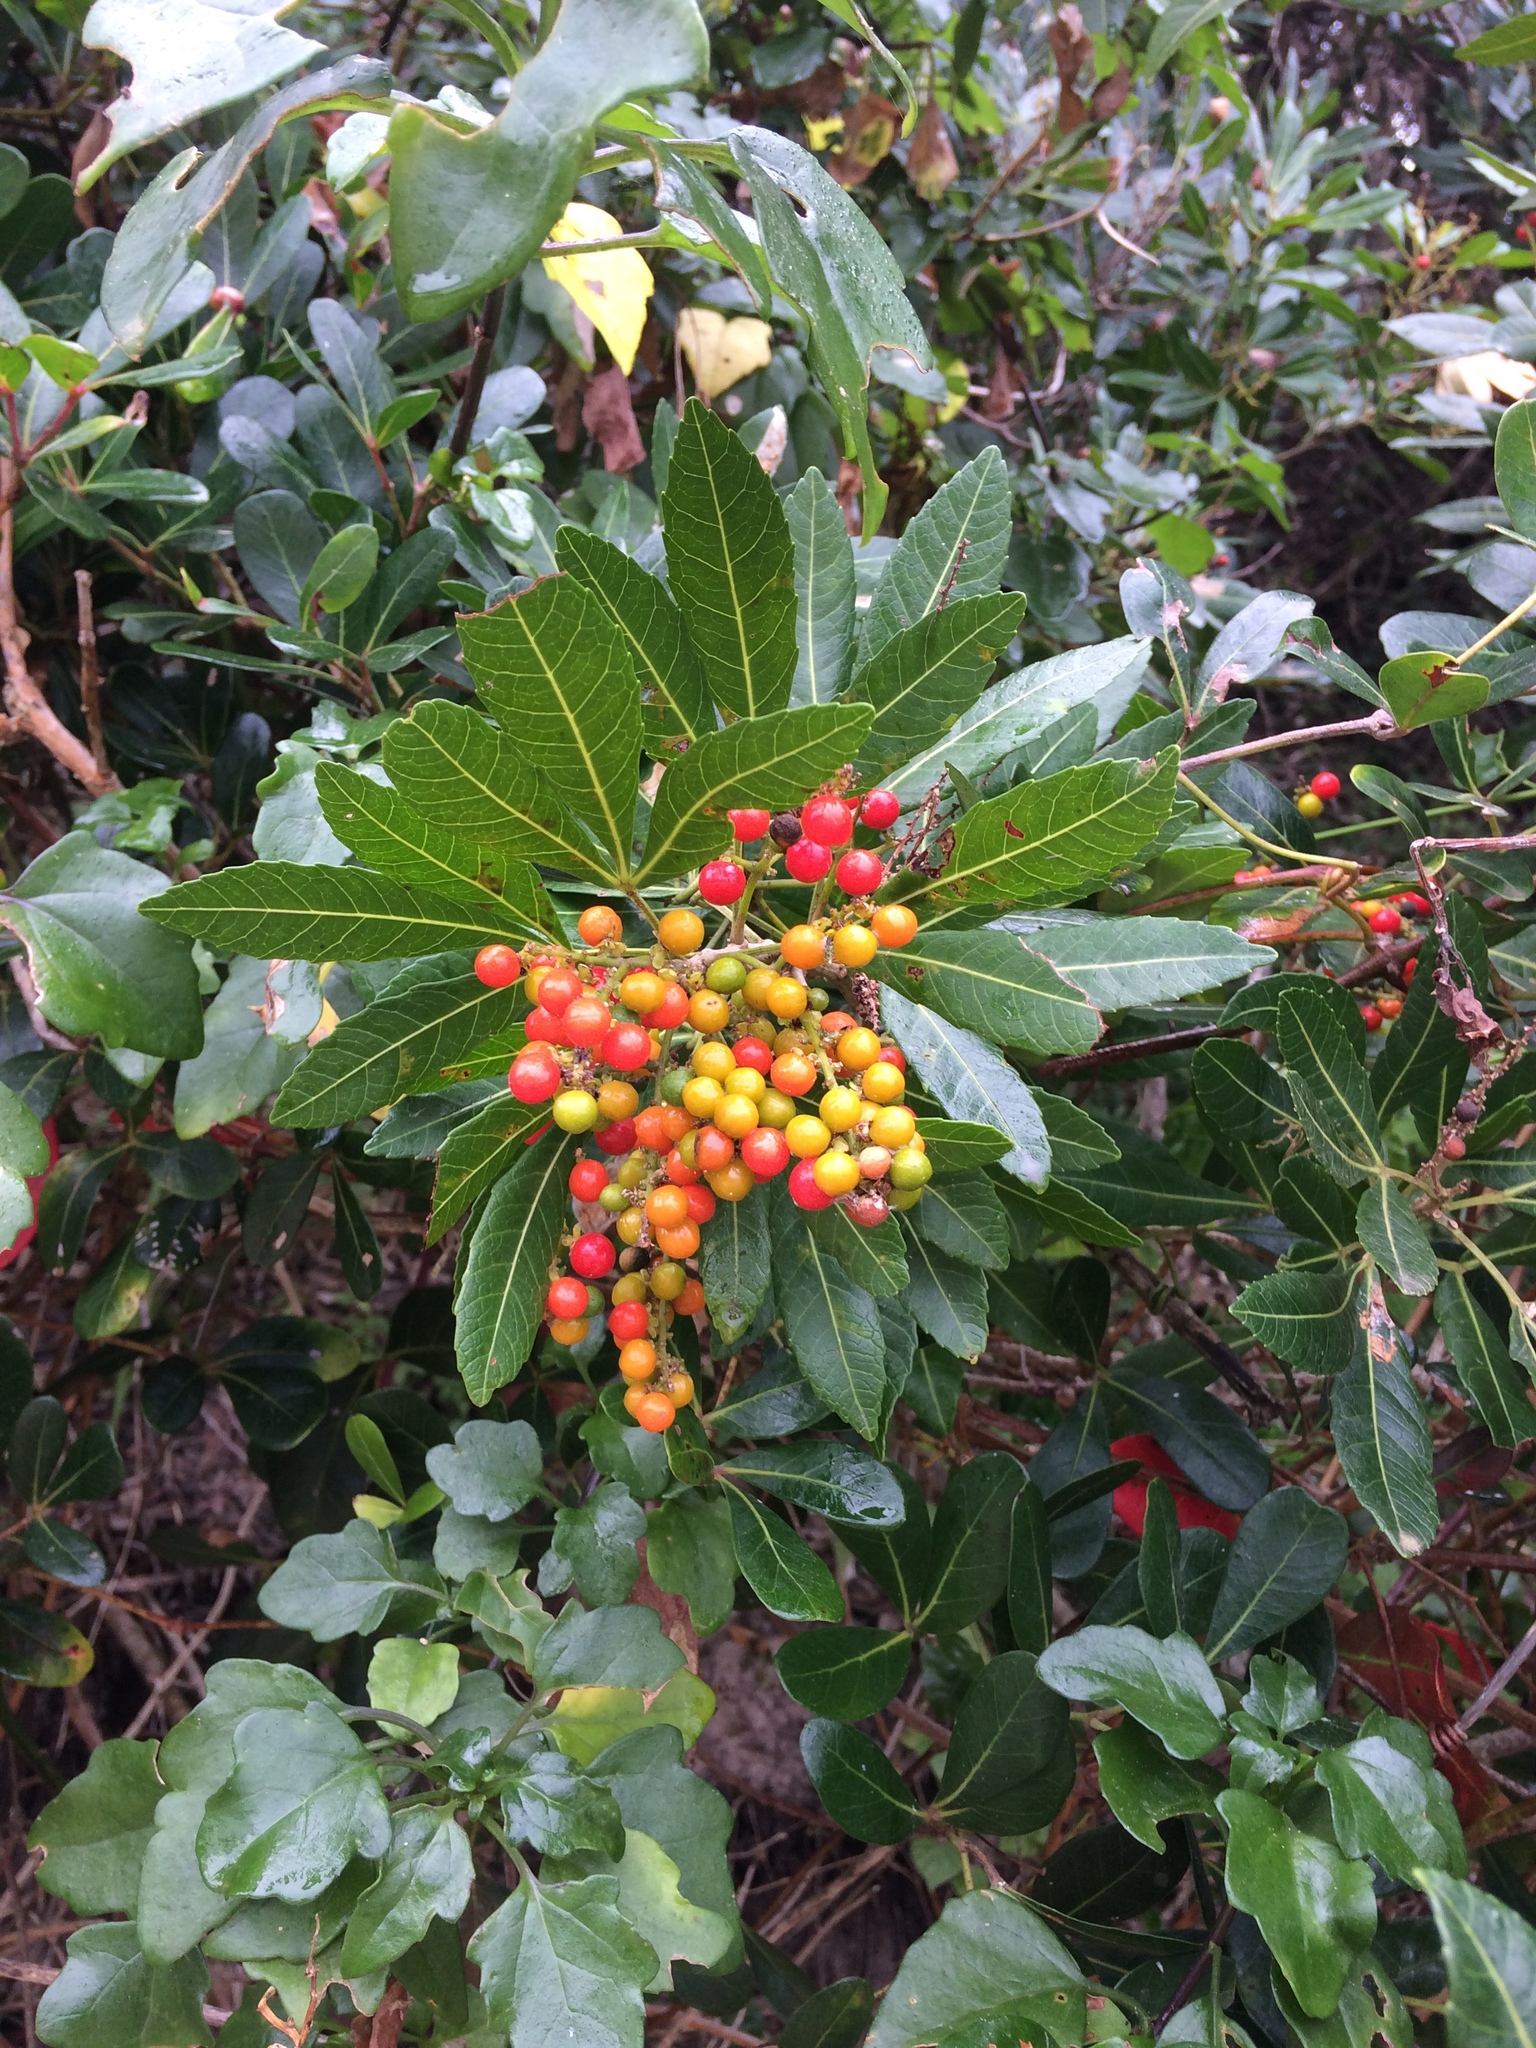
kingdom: Plantae
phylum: Tracheophyta
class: Magnoliopsida
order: Sapindales
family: Sapindaceae
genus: Allophylus
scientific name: Allophylus natalensis
